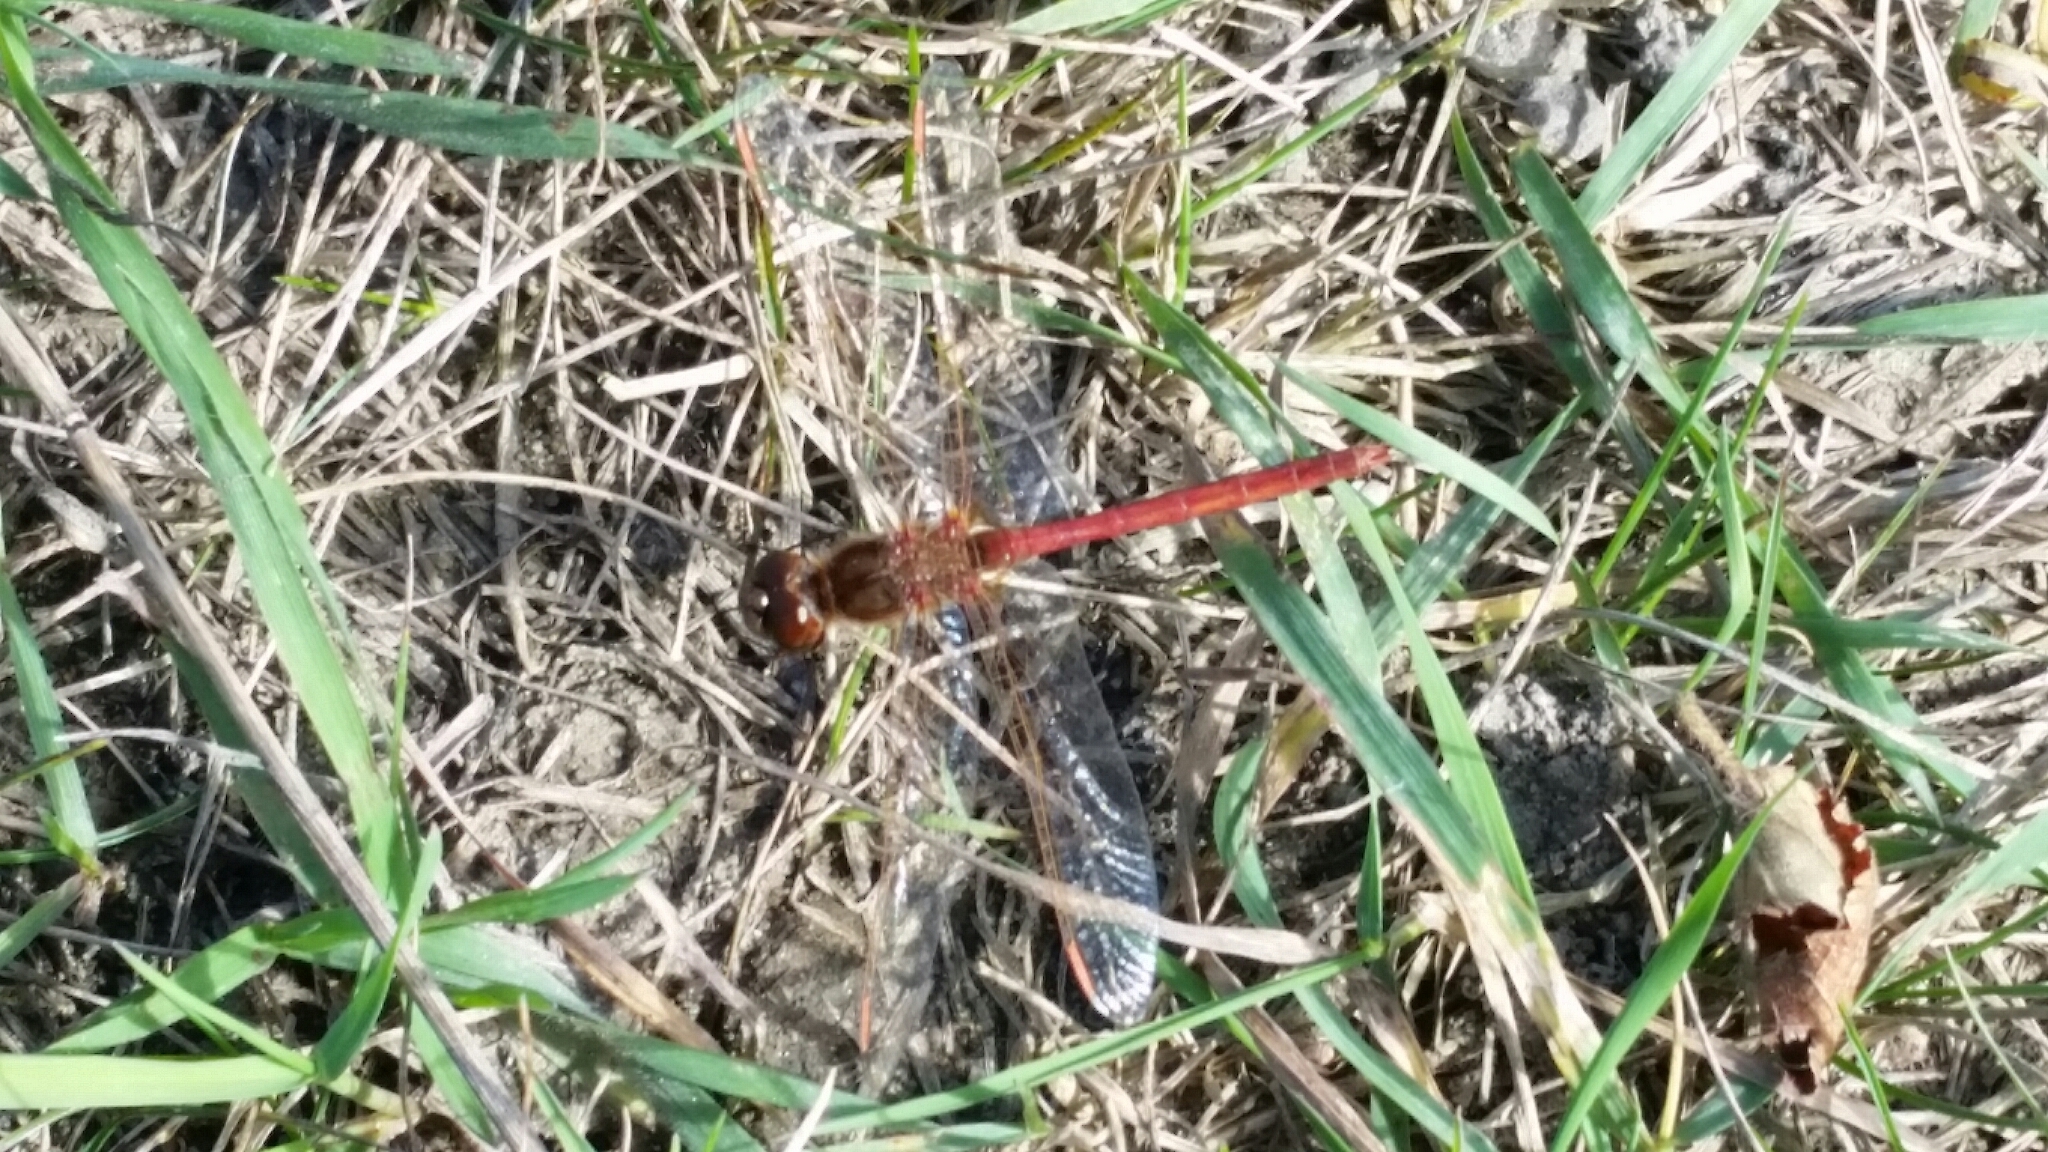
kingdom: Animalia
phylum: Arthropoda
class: Insecta
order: Odonata
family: Libellulidae
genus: Sympetrum
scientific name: Sympetrum costiferum
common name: Saffron-winged meadowhawk
